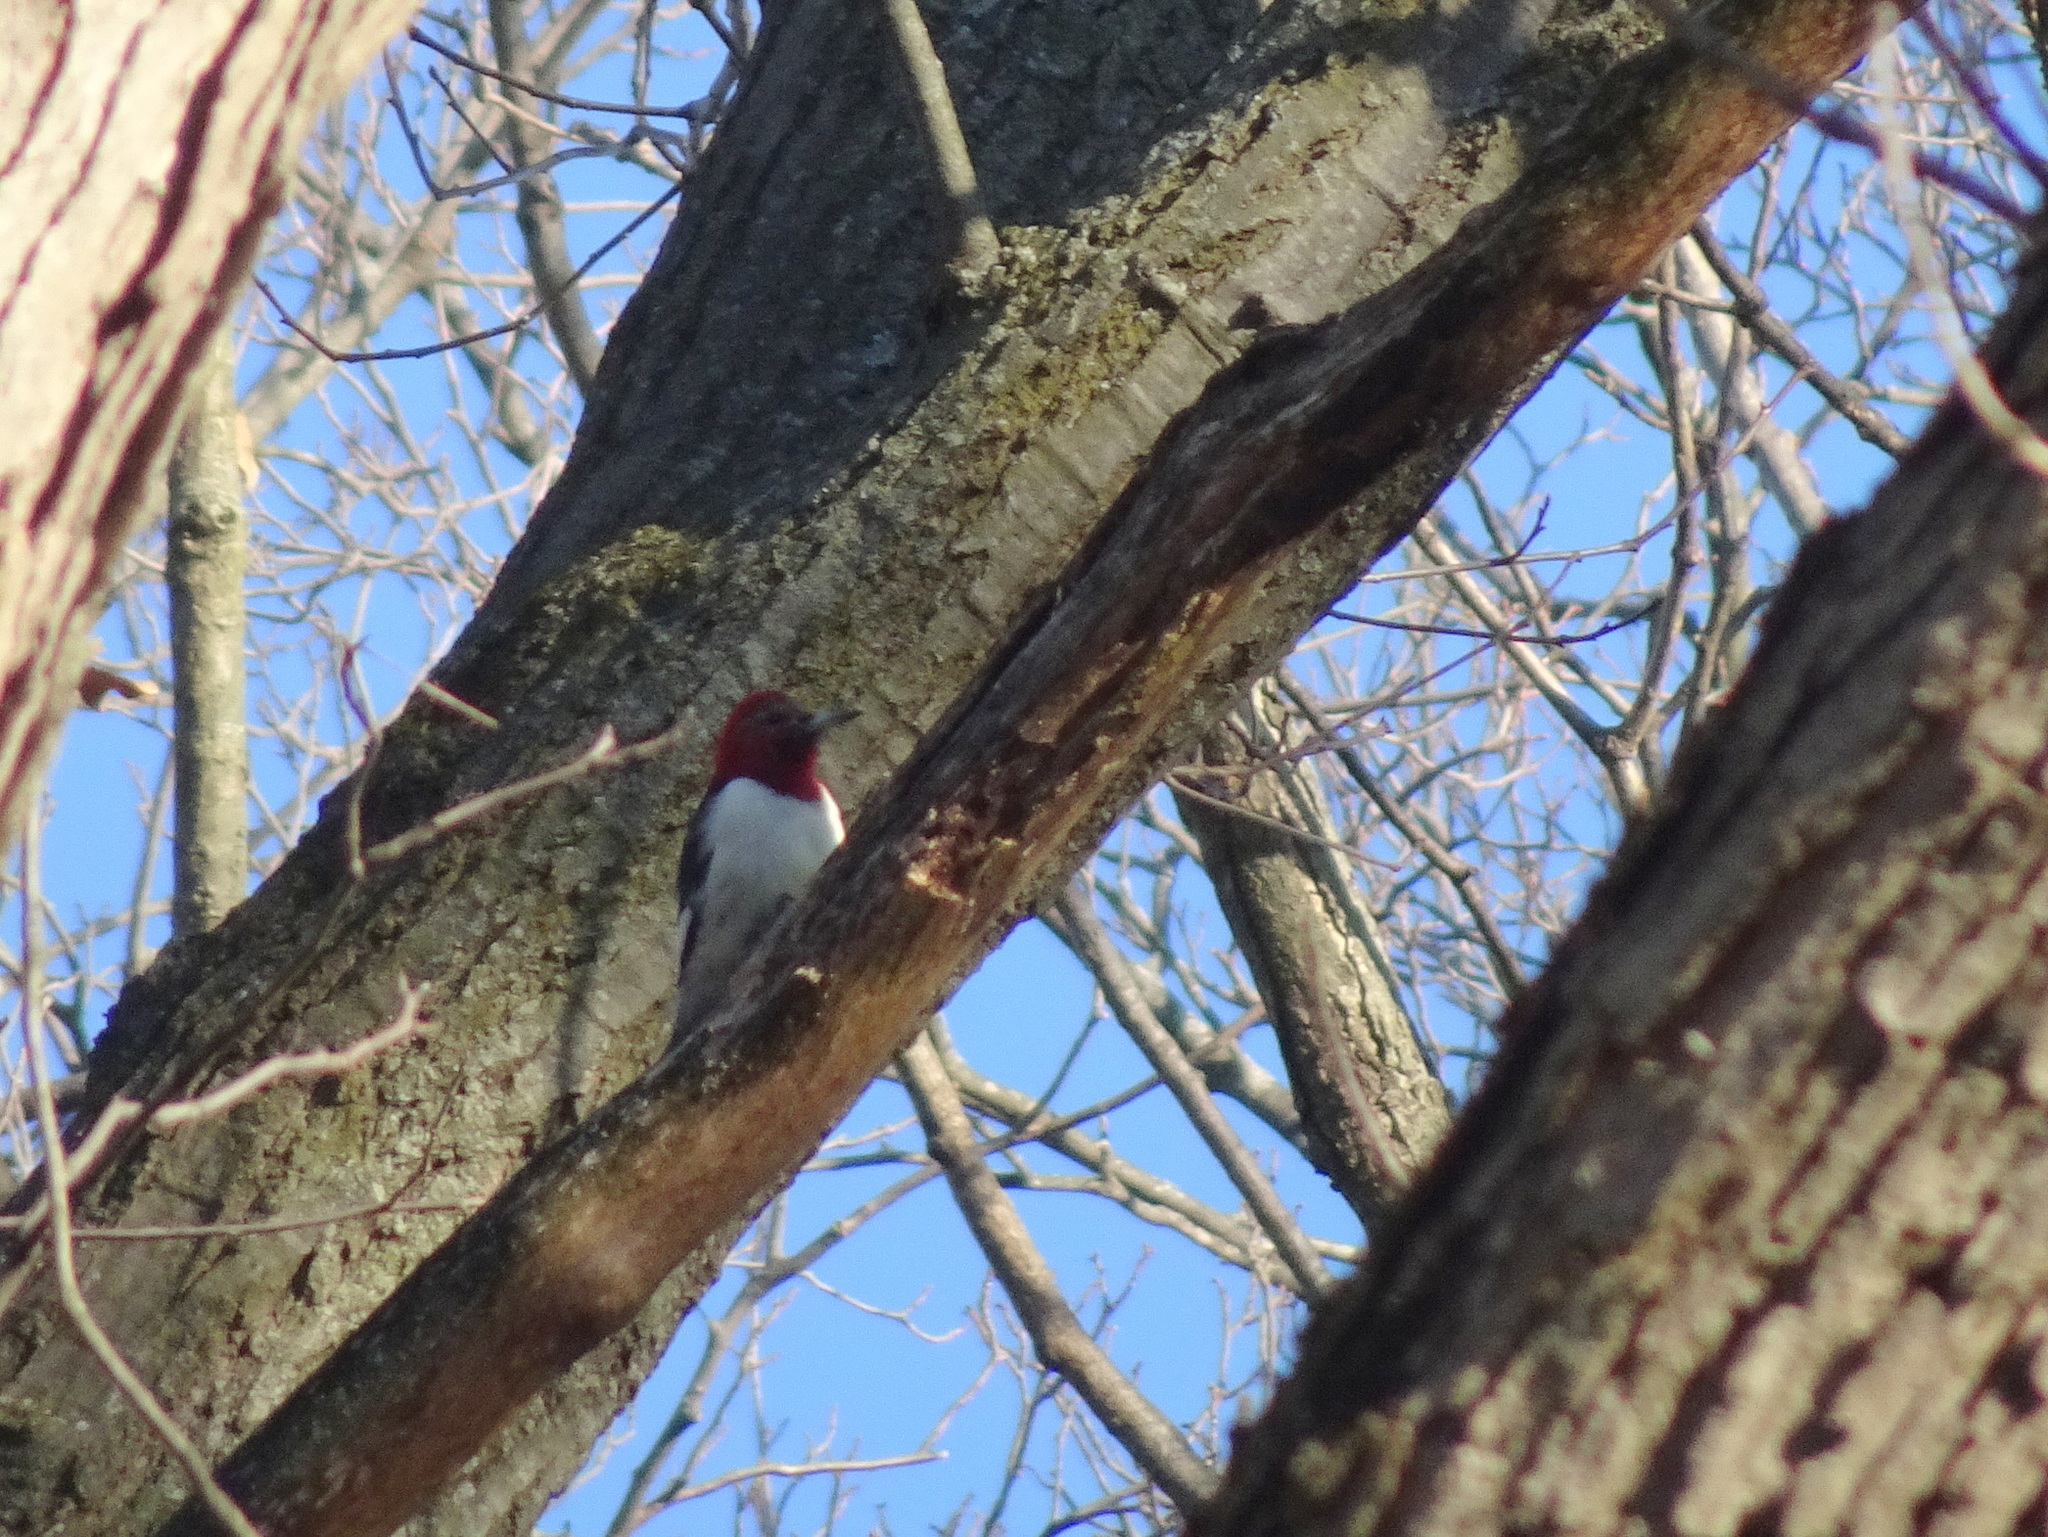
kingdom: Animalia
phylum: Chordata
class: Aves
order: Piciformes
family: Picidae
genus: Melanerpes
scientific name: Melanerpes erythrocephalus
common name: Red-headed woodpecker
